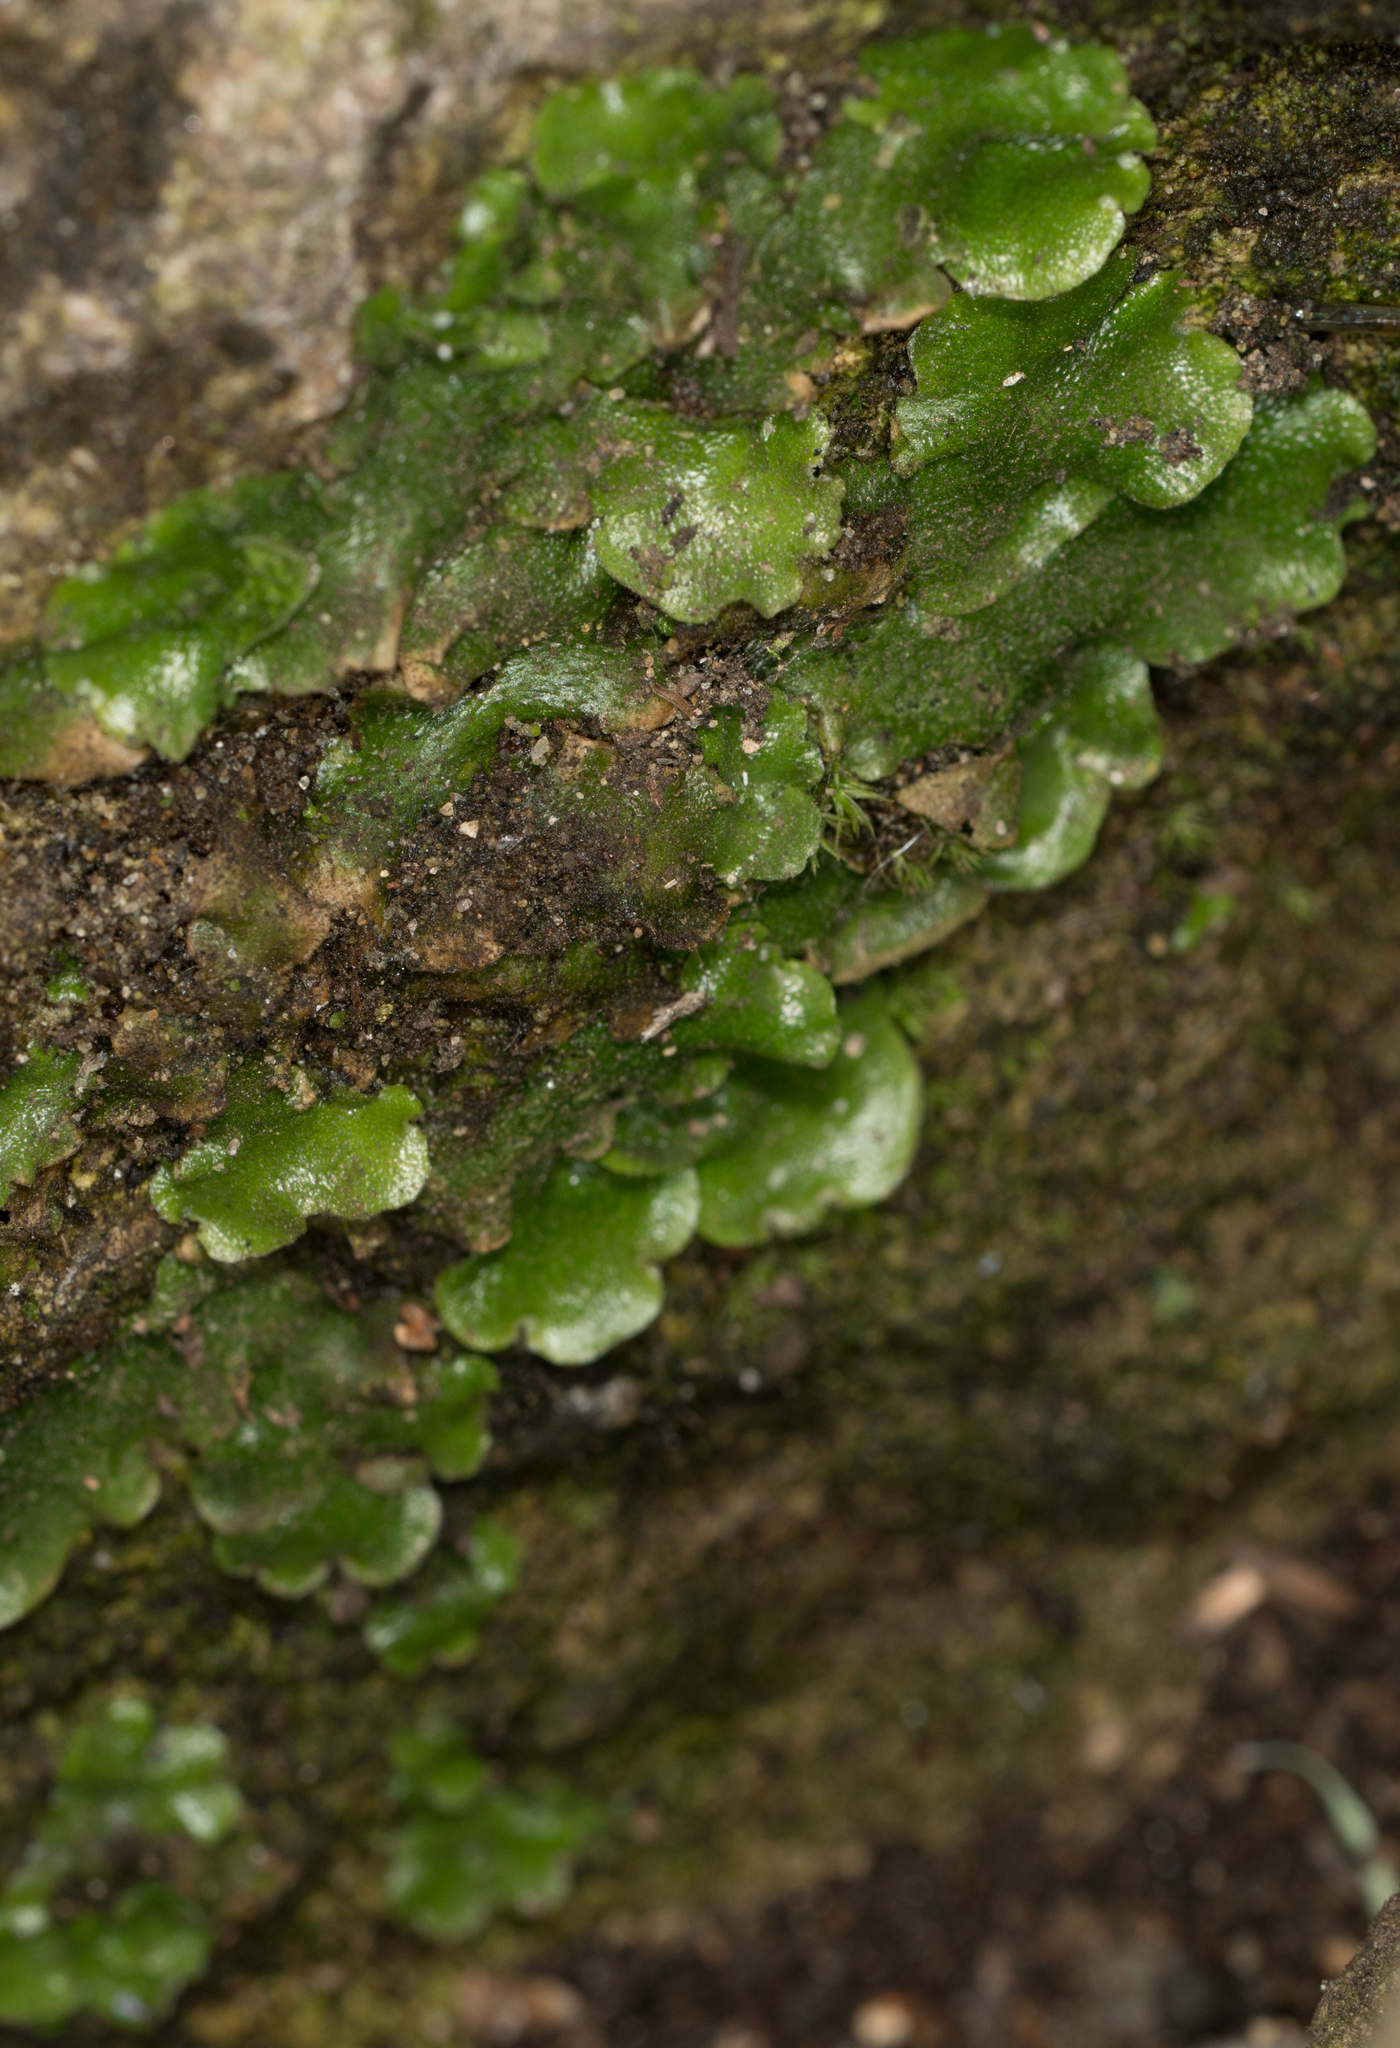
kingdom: Plantae
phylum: Marchantiophyta
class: Marchantiopsida
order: Lunulariales
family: Lunulariaceae
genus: Lunularia
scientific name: Lunularia cruciata
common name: Crescent-cup liverwort
